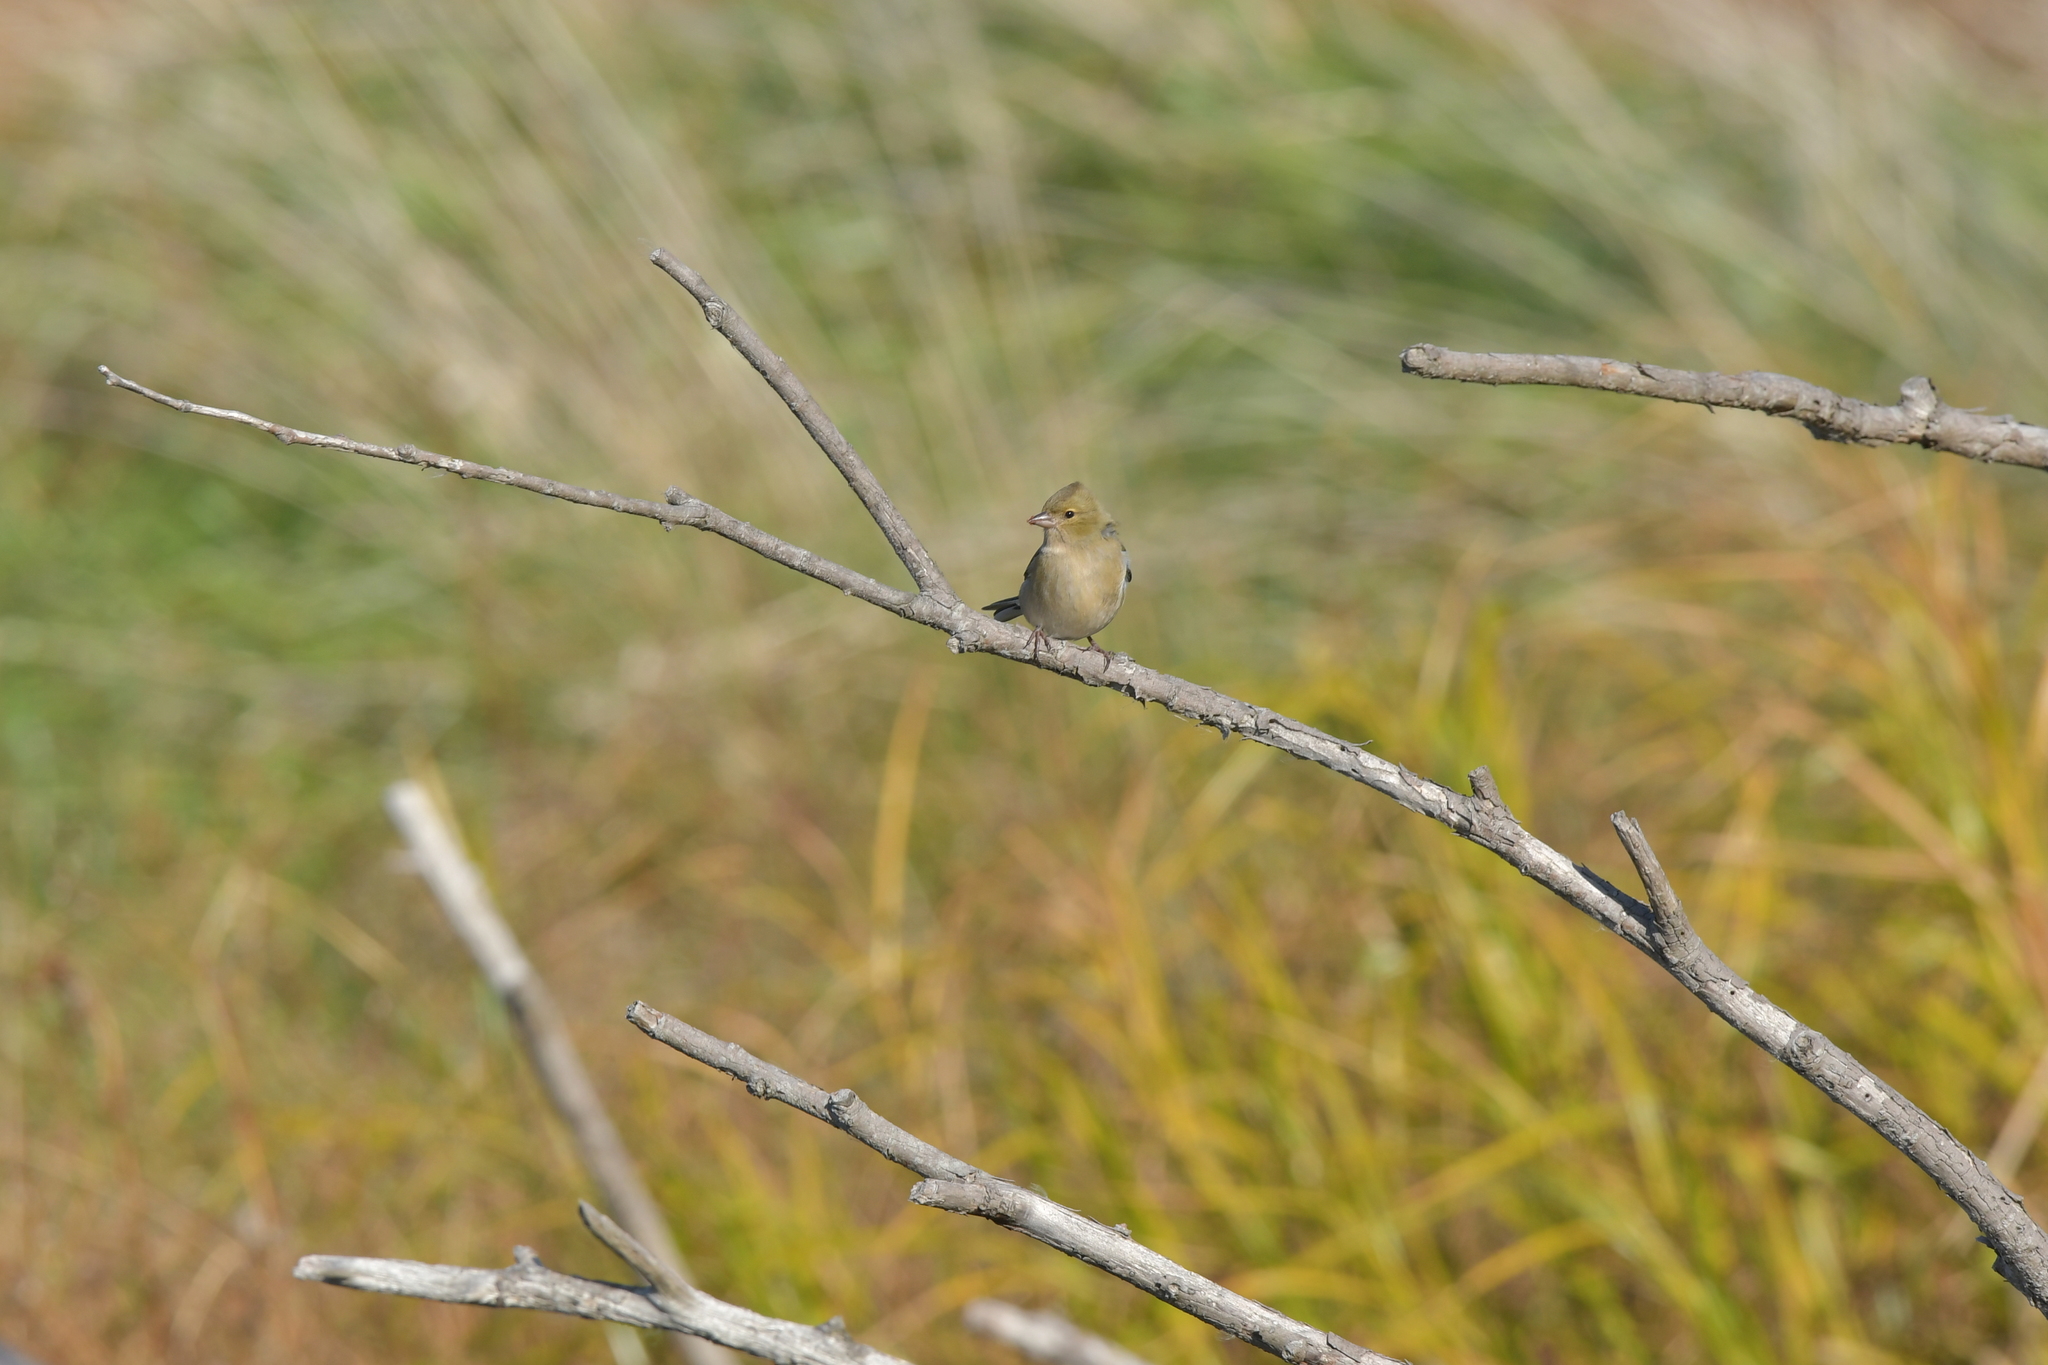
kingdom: Animalia
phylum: Chordata
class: Aves
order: Passeriformes
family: Fringillidae
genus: Fringilla
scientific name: Fringilla coelebs
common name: Common chaffinch
